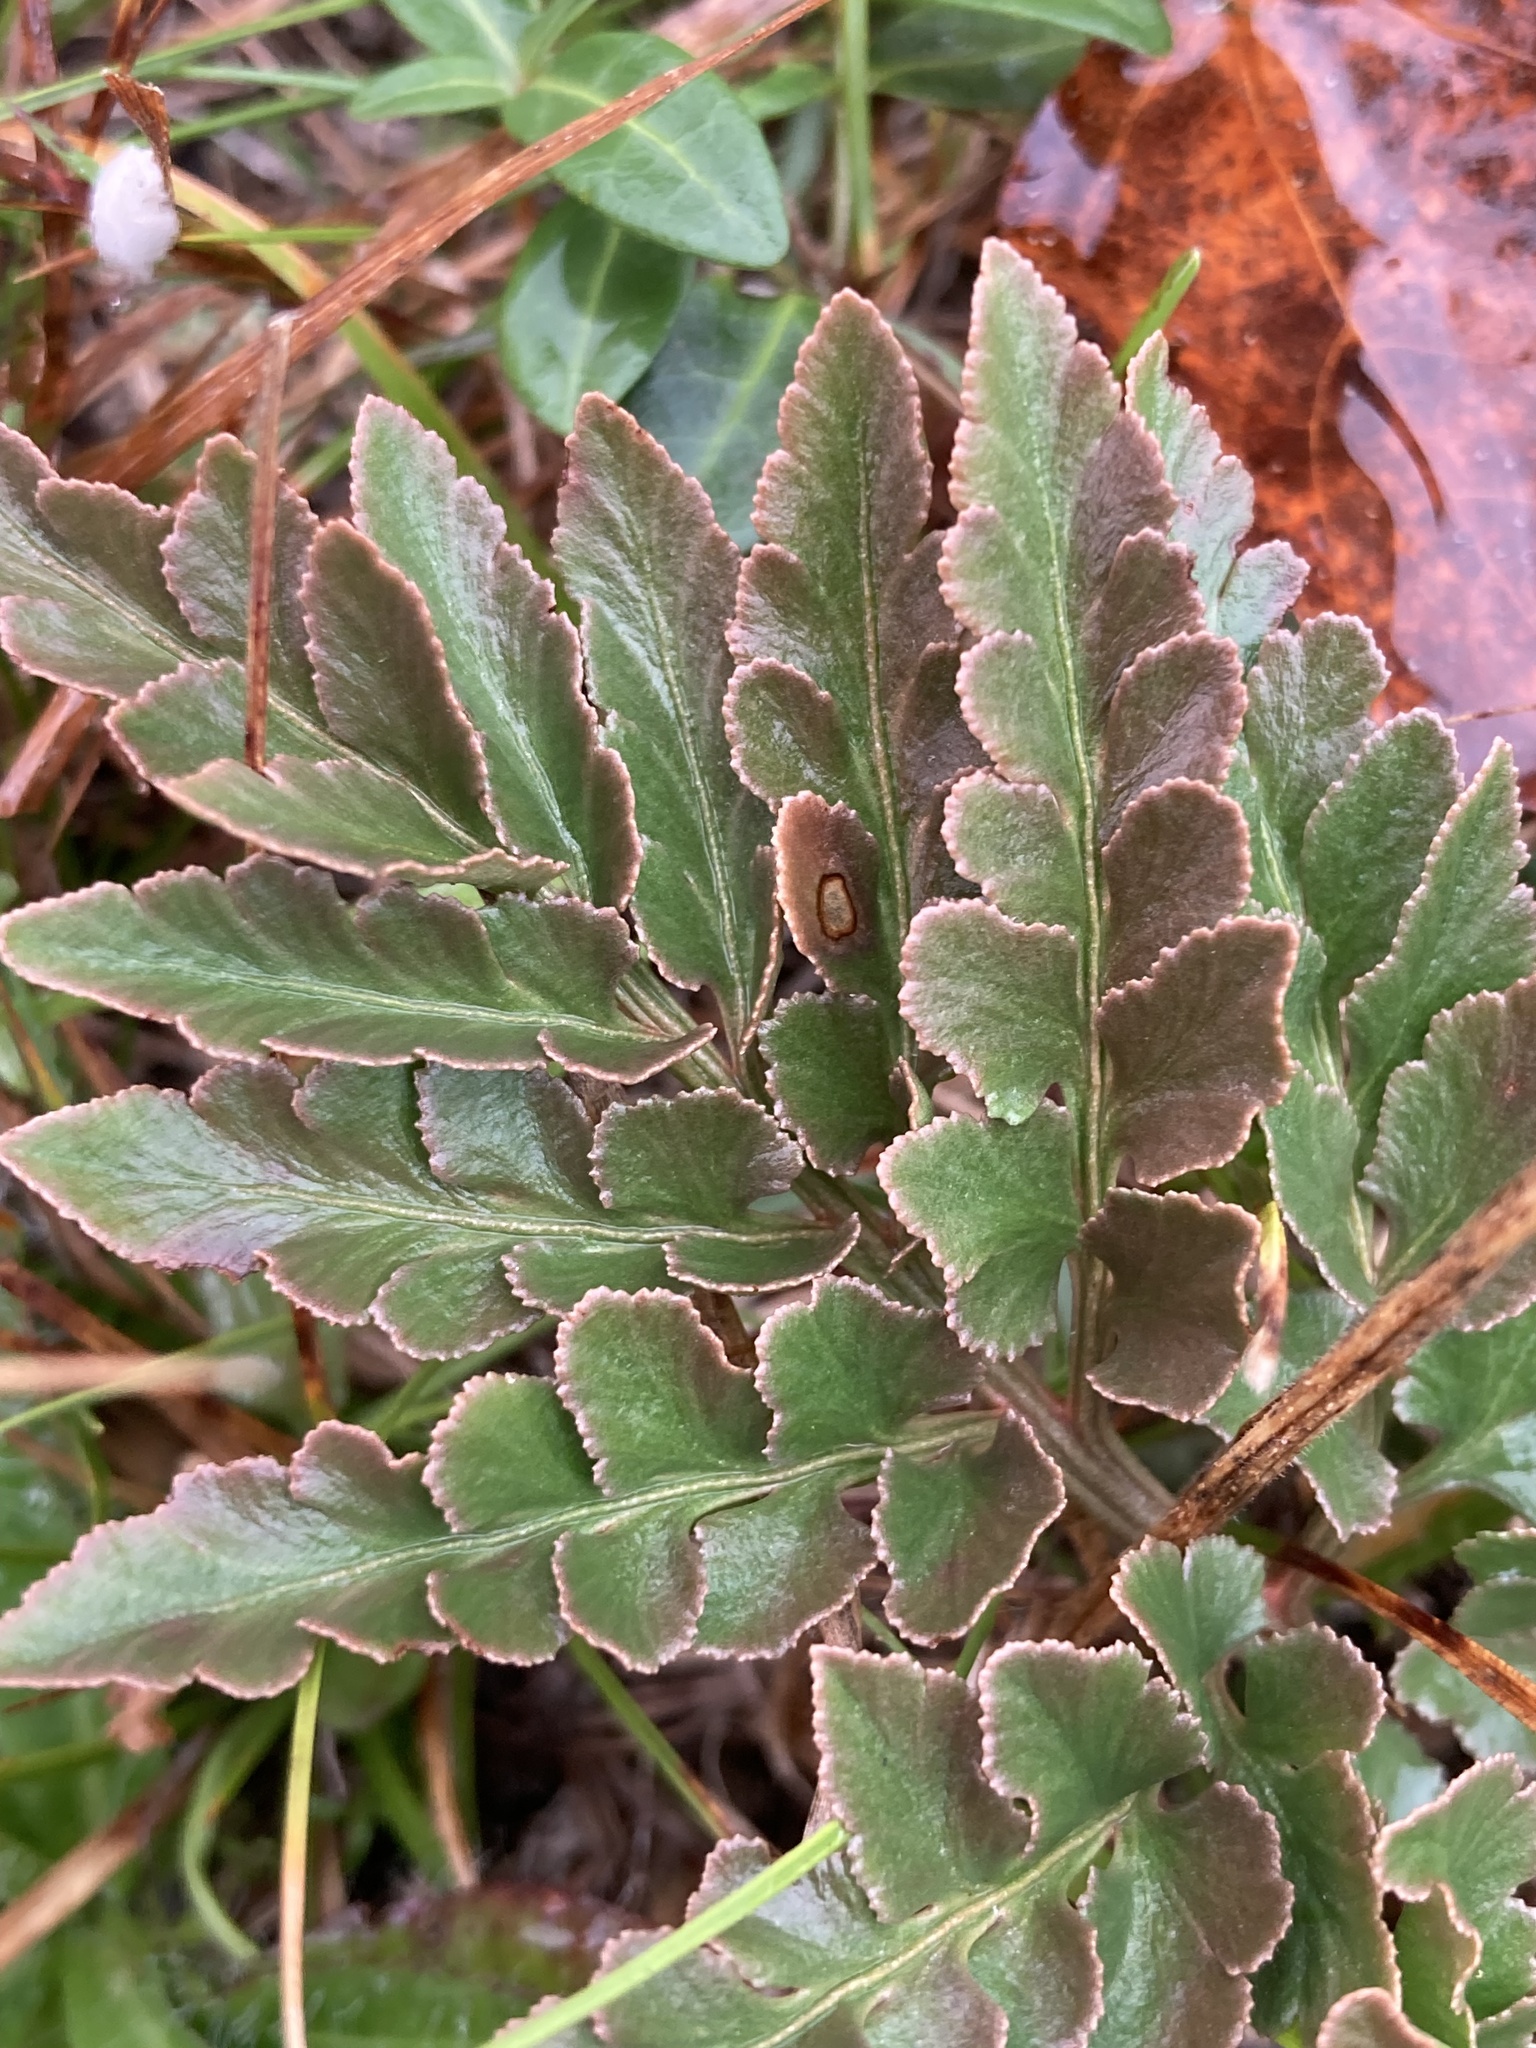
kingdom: Plantae
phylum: Tracheophyta
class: Polypodiopsida
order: Ophioglossales
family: Ophioglossaceae
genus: Sceptridium
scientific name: Sceptridium multifidum
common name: Leathery grape fern
